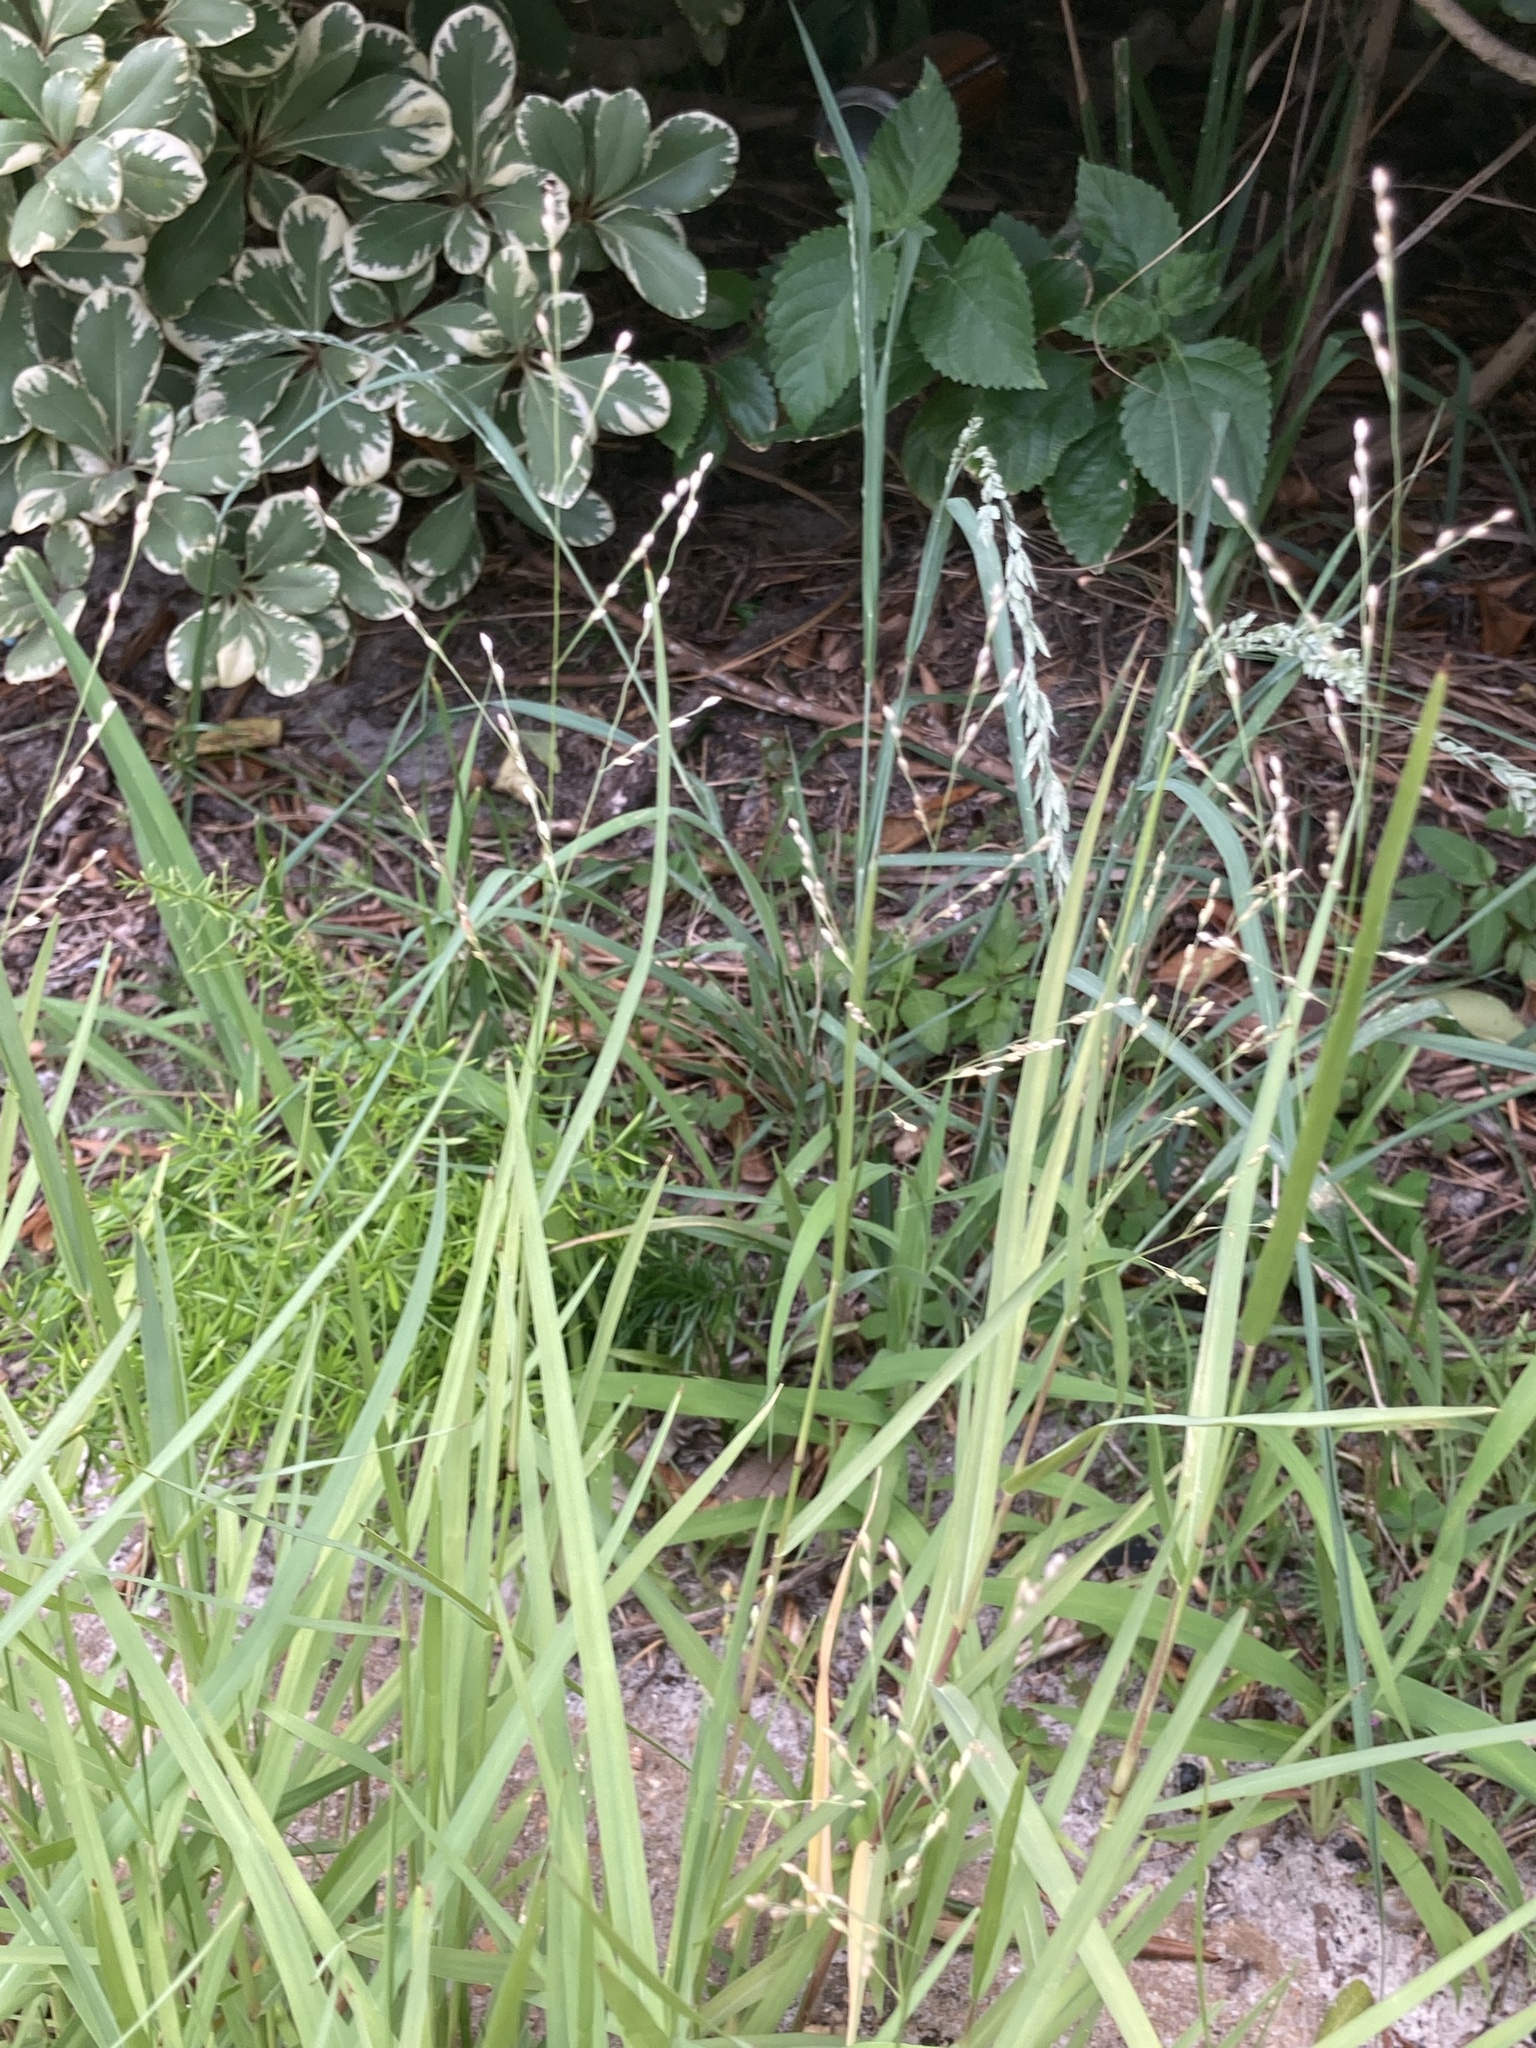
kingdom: Plantae
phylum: Tracheophyta
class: Liliopsida
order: Poales
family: Poaceae
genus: Panicum
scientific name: Panicum repens
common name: Torpedo grass
